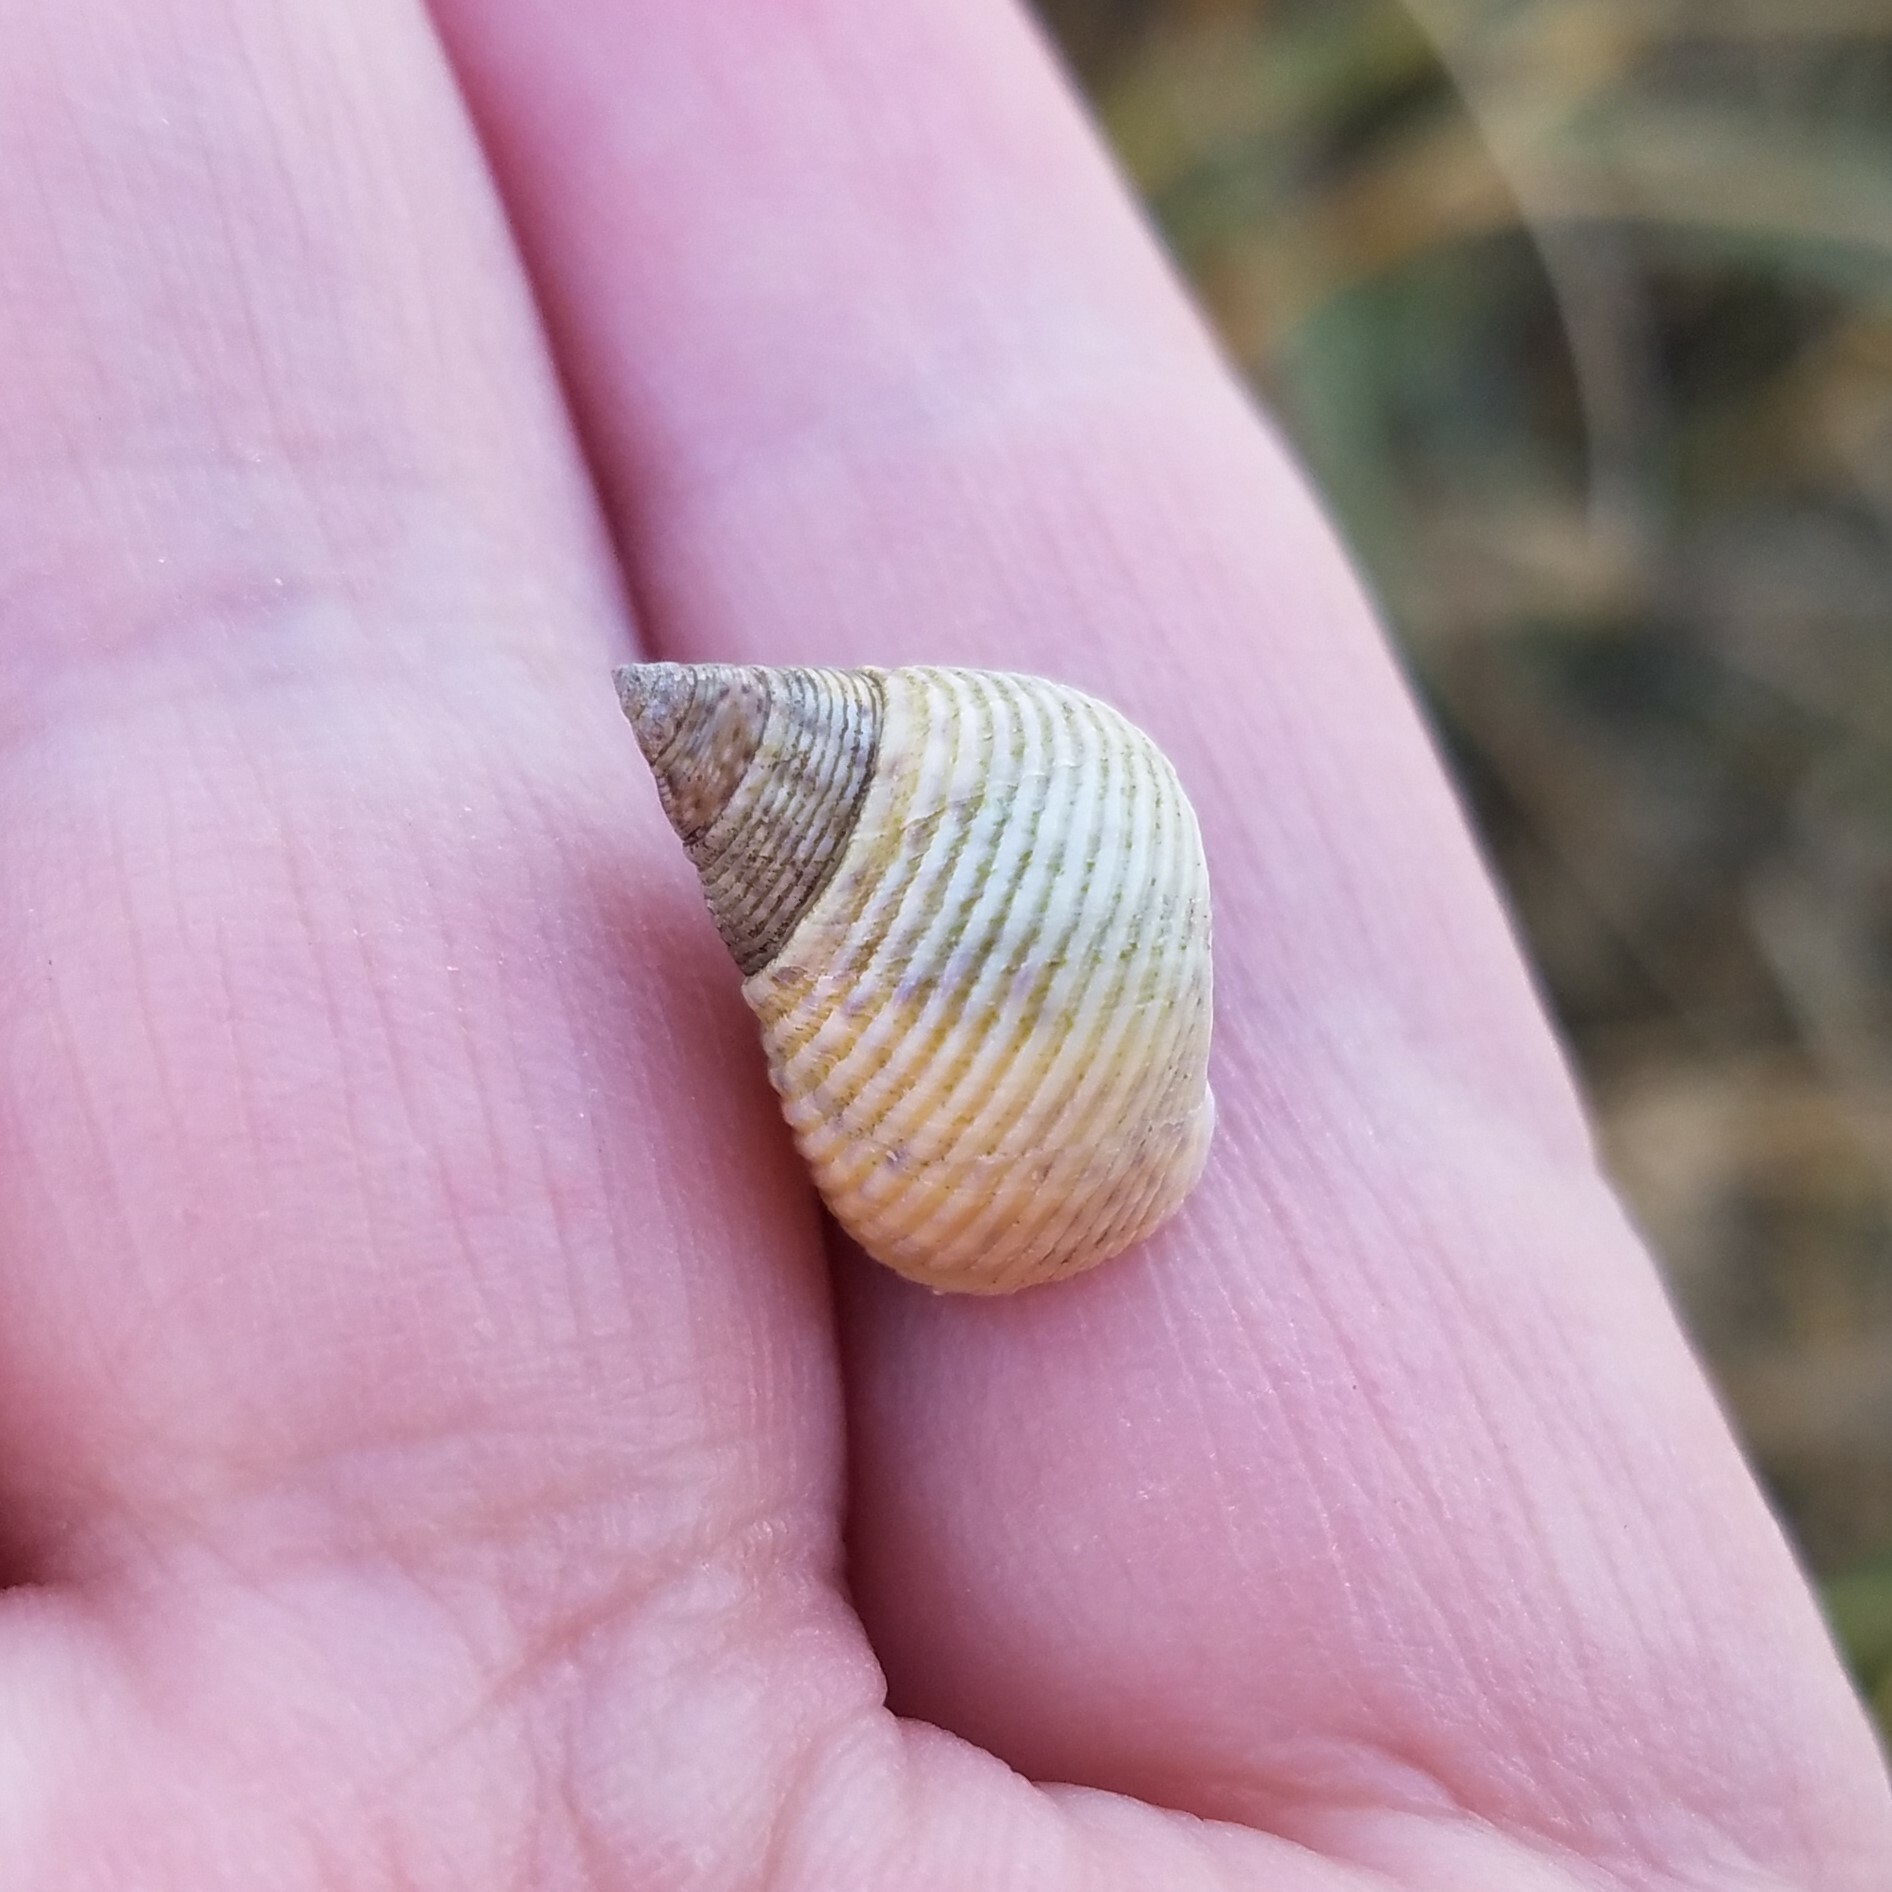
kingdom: Animalia
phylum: Mollusca
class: Gastropoda
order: Littorinimorpha
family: Littorinidae
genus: Littoraria
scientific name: Littoraria irrorata
